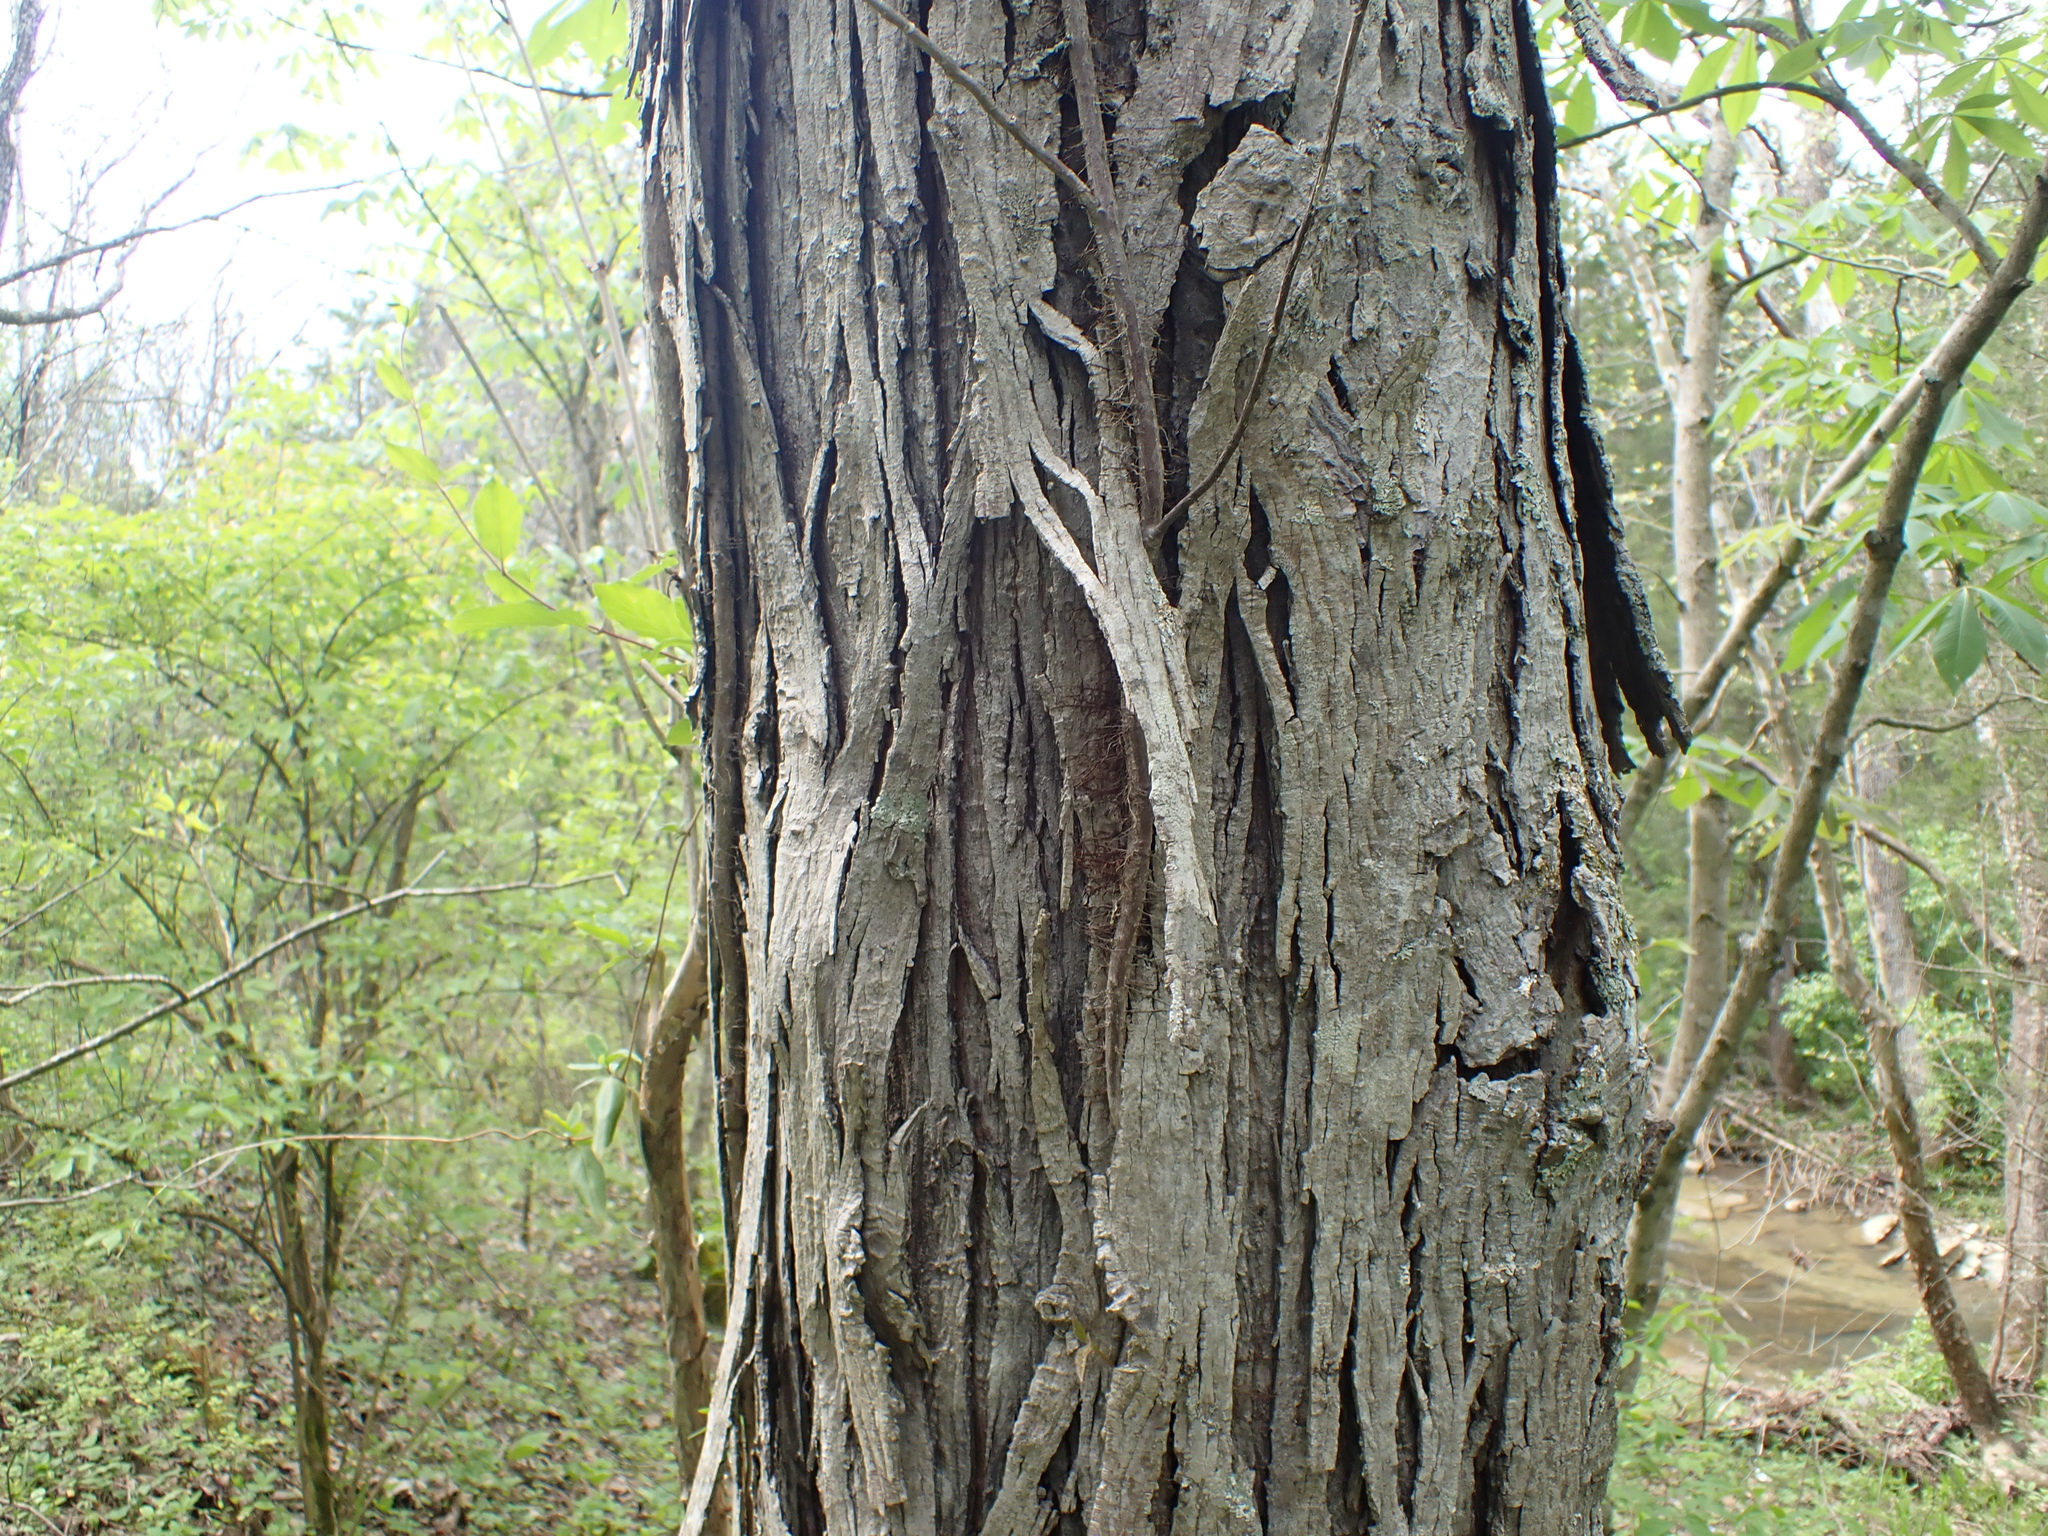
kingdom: Plantae
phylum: Tracheophyta
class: Magnoliopsida
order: Fagales
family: Juglandaceae
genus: Carya
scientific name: Carya ovata
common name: Shagbark hickory
